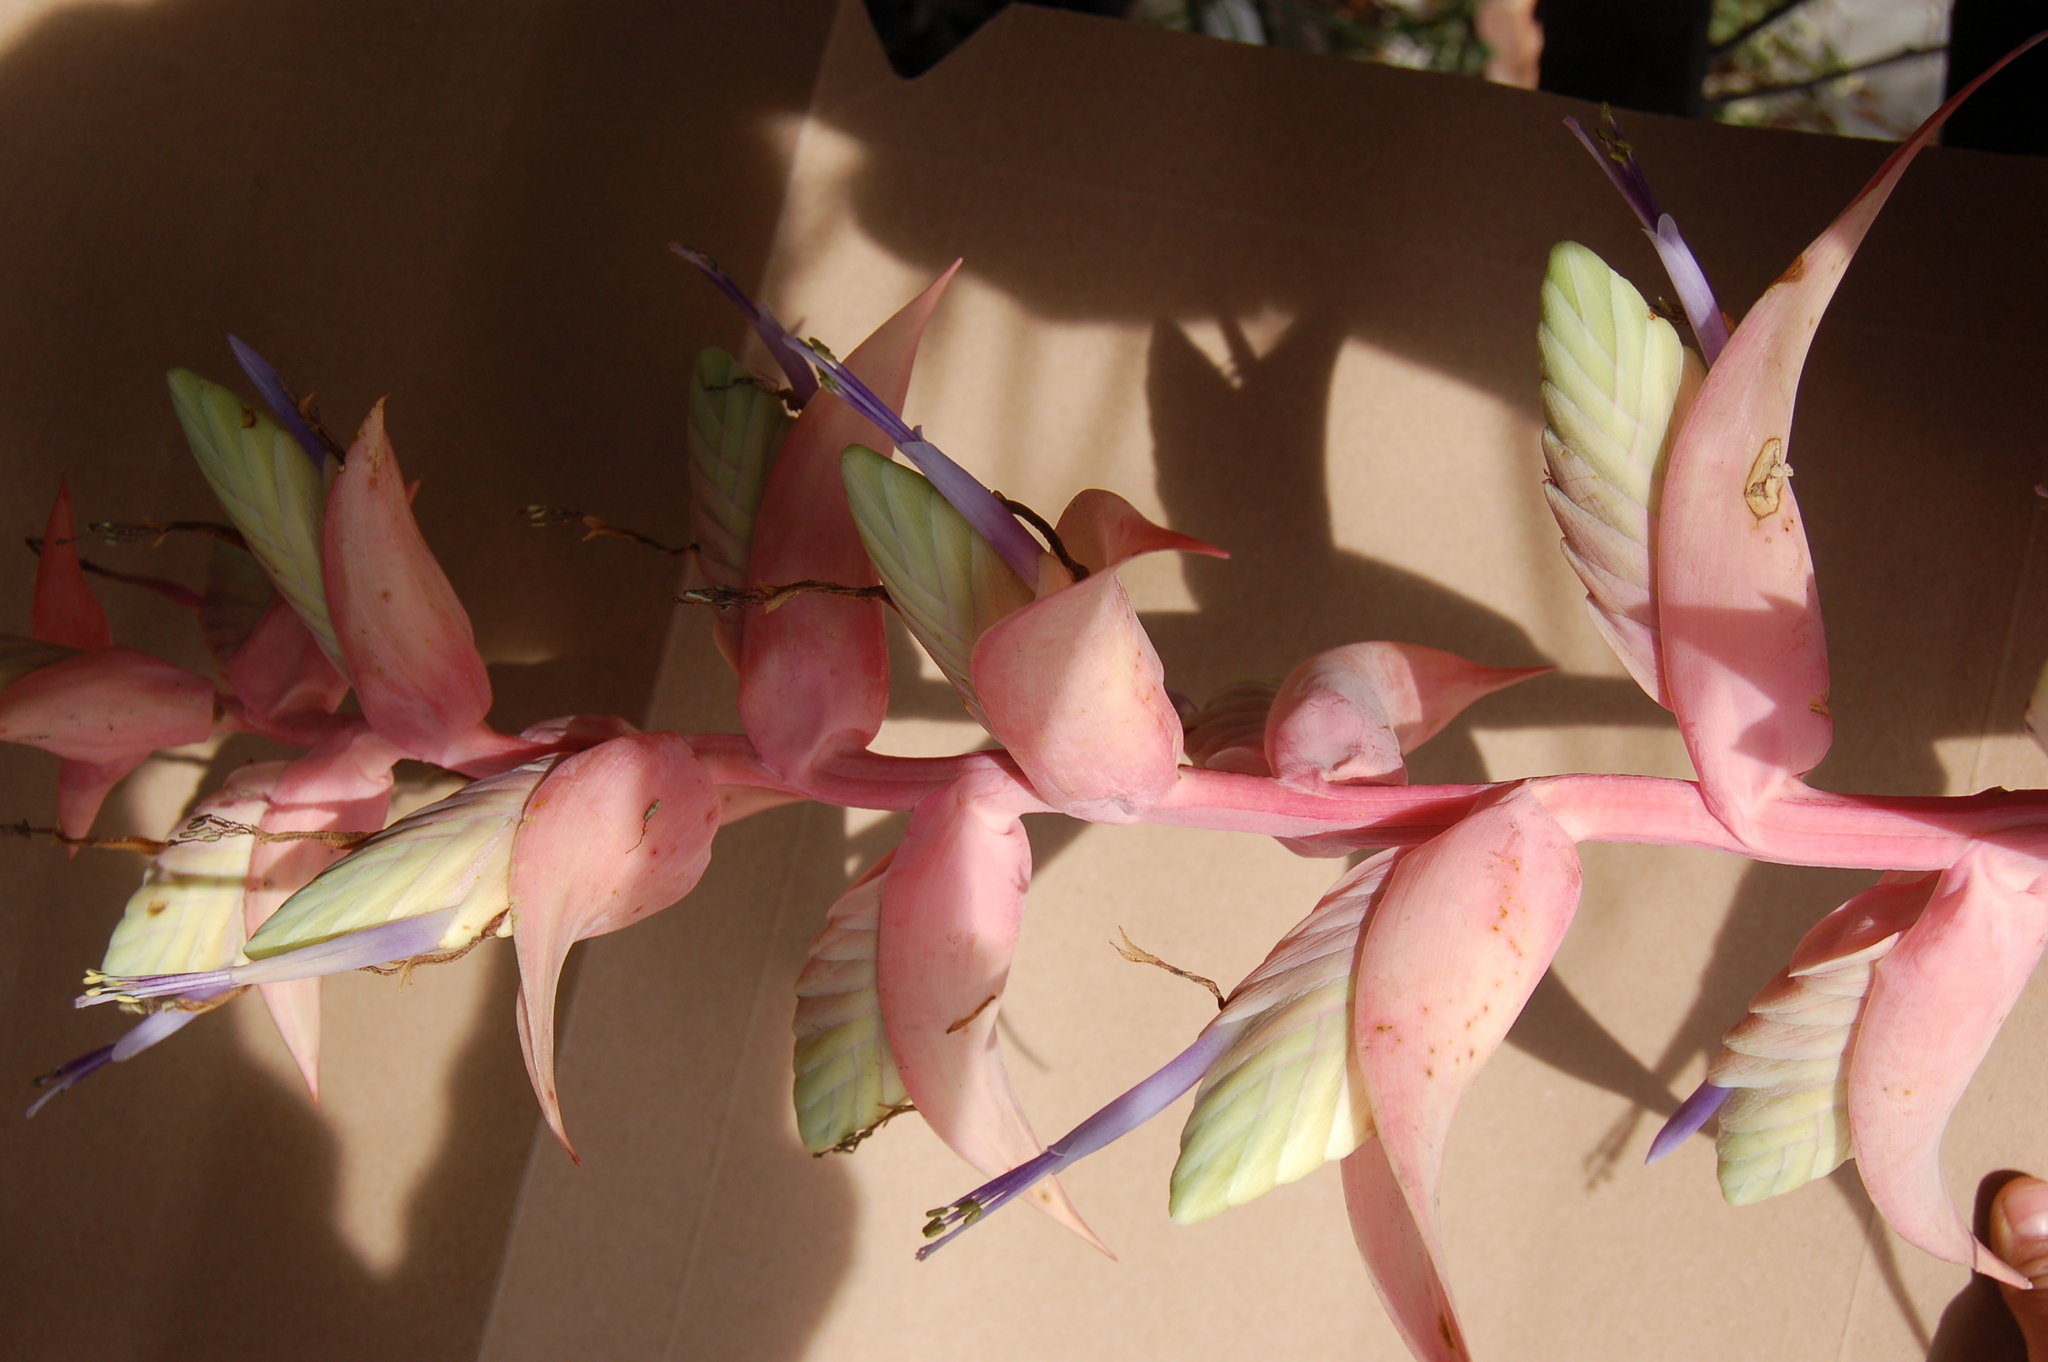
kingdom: Plantae
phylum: Tracheophyta
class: Liliopsida
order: Poales
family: Bromeliaceae
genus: Tillandsia
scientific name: Tillandsia eizii
